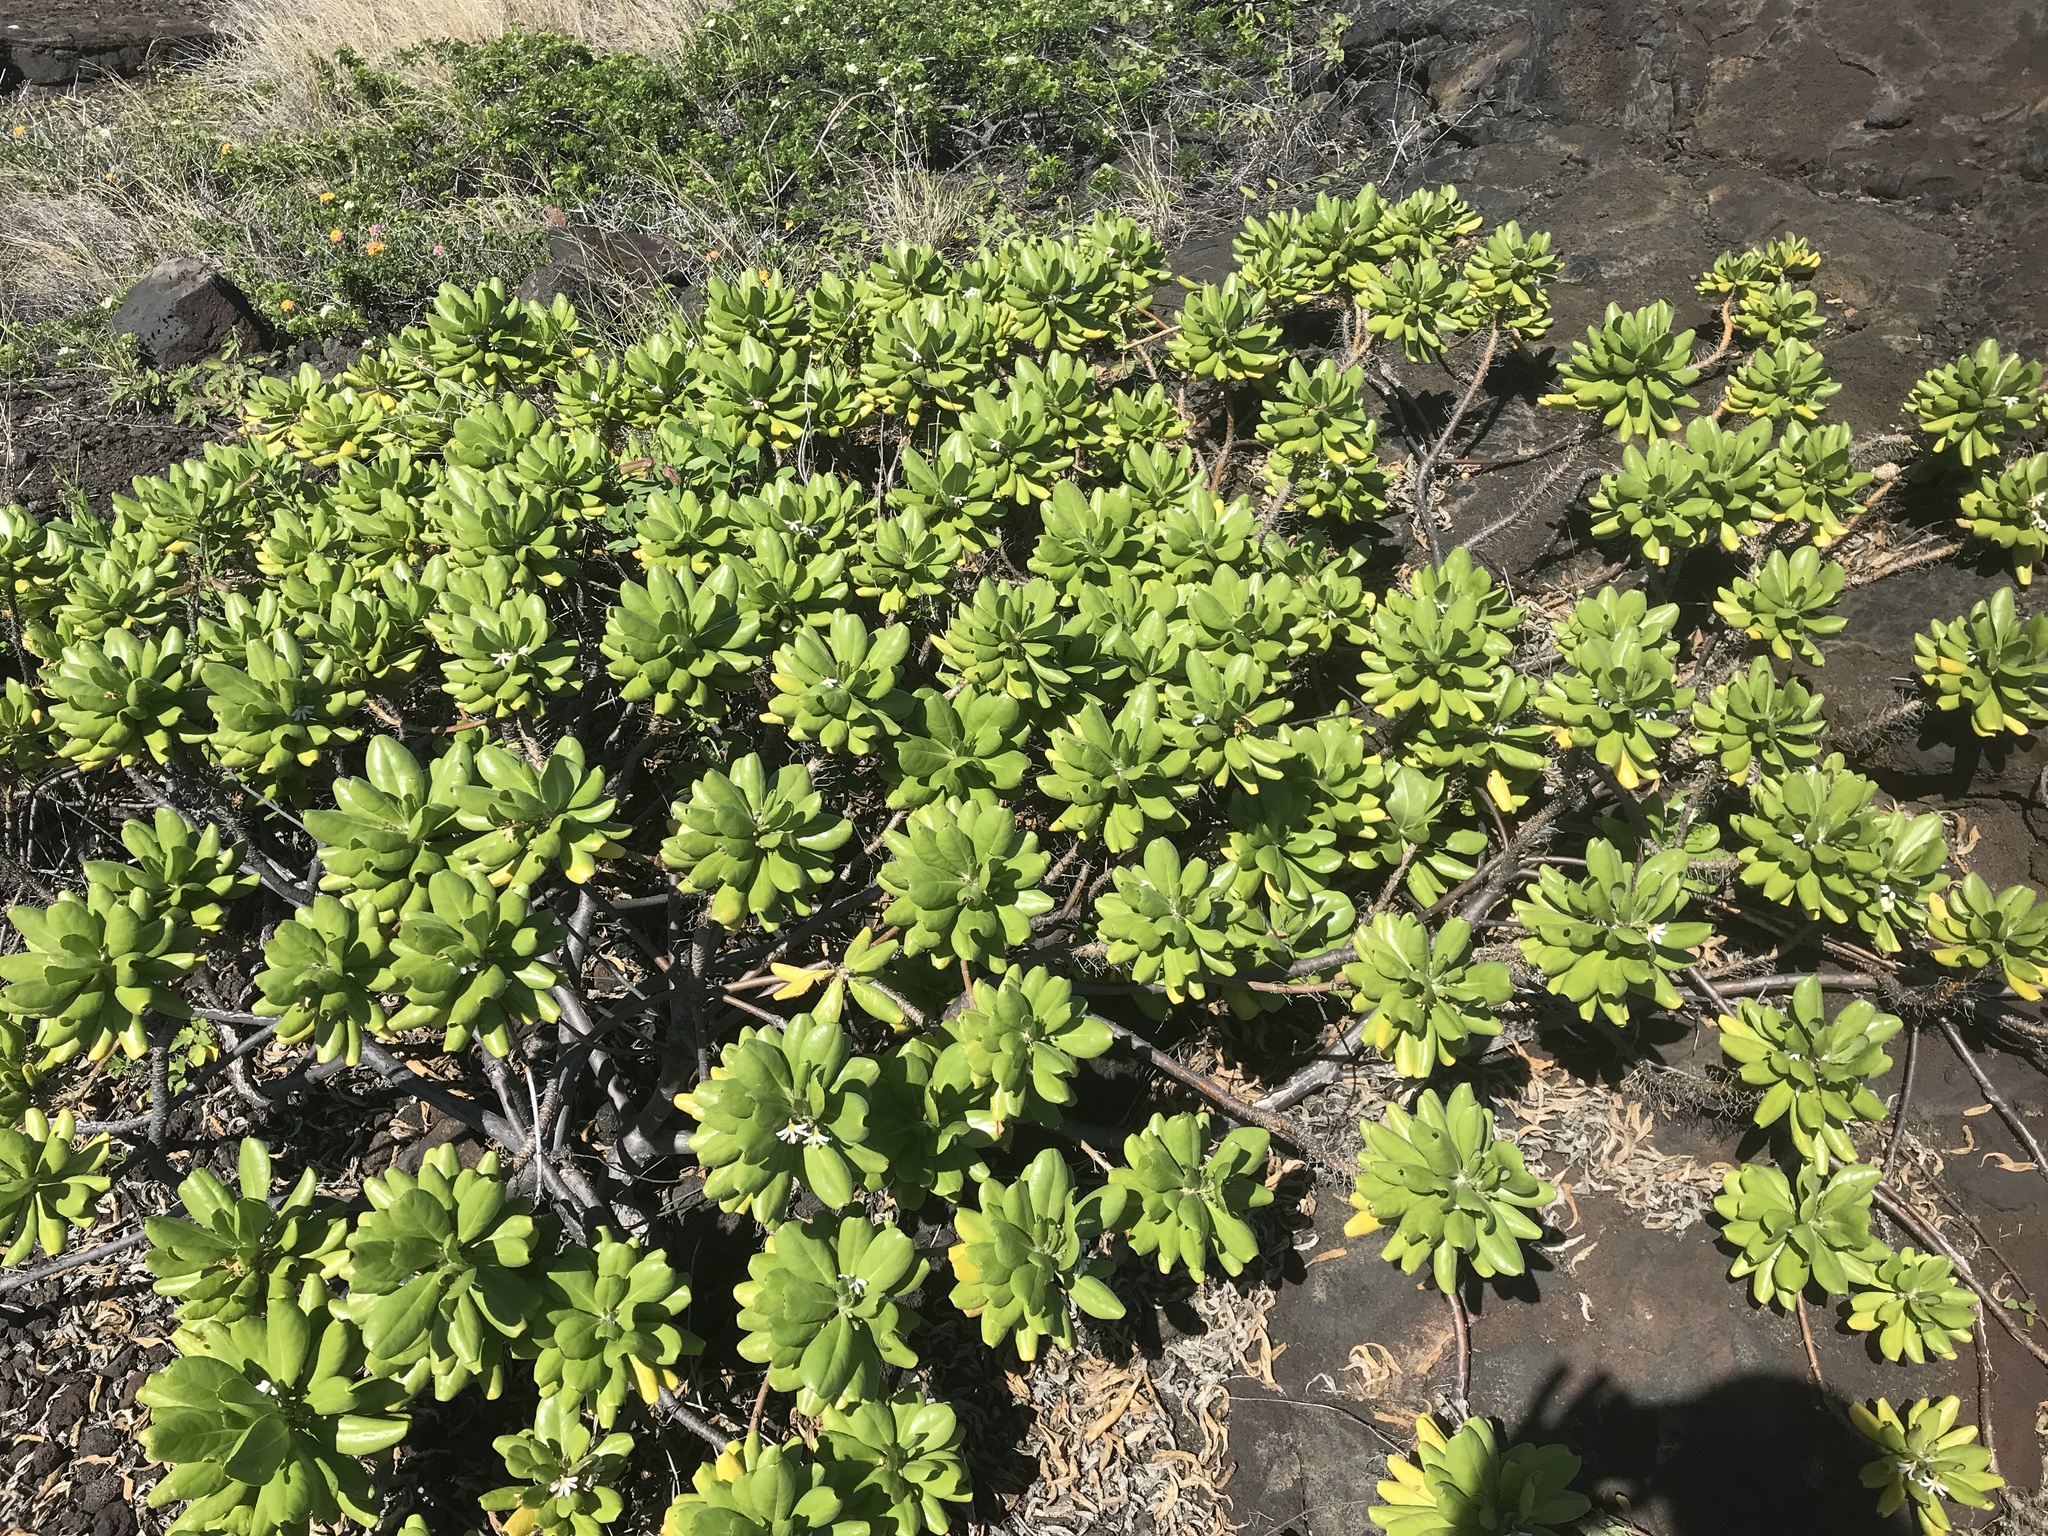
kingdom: Plantae
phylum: Tracheophyta
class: Magnoliopsida
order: Asterales
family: Goodeniaceae
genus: Scaevola
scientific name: Scaevola taccada
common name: Sea lettucetree
